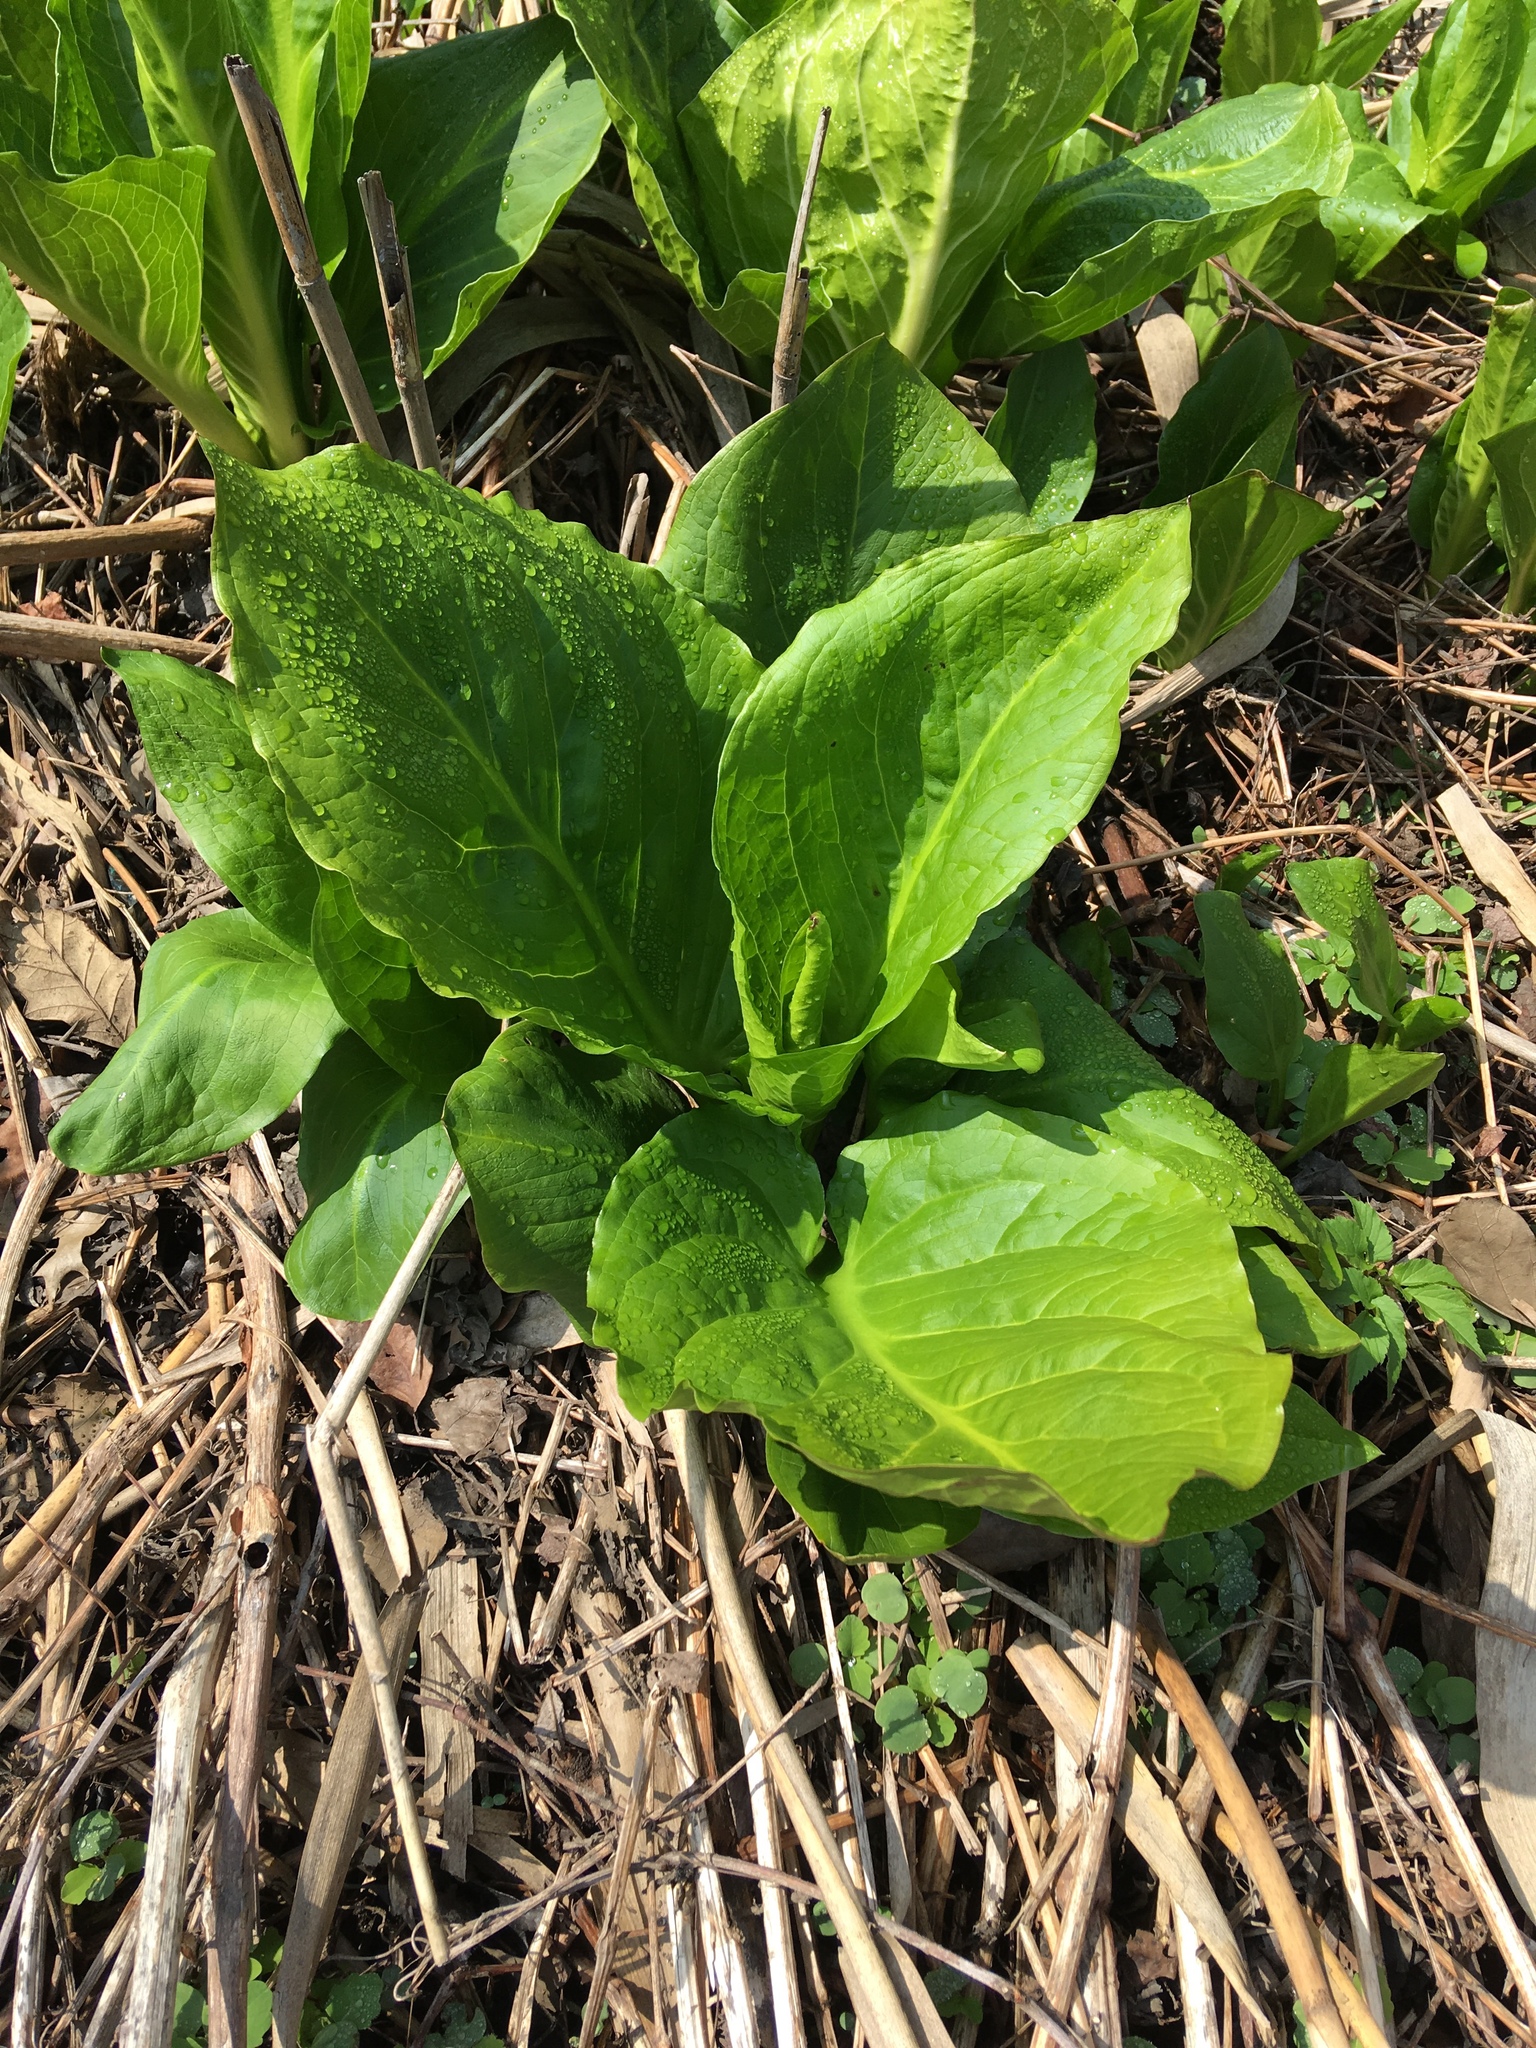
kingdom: Plantae
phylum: Tracheophyta
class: Liliopsida
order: Alismatales
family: Araceae
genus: Symplocarpus
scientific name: Symplocarpus foetidus
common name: Eastern skunk cabbage
